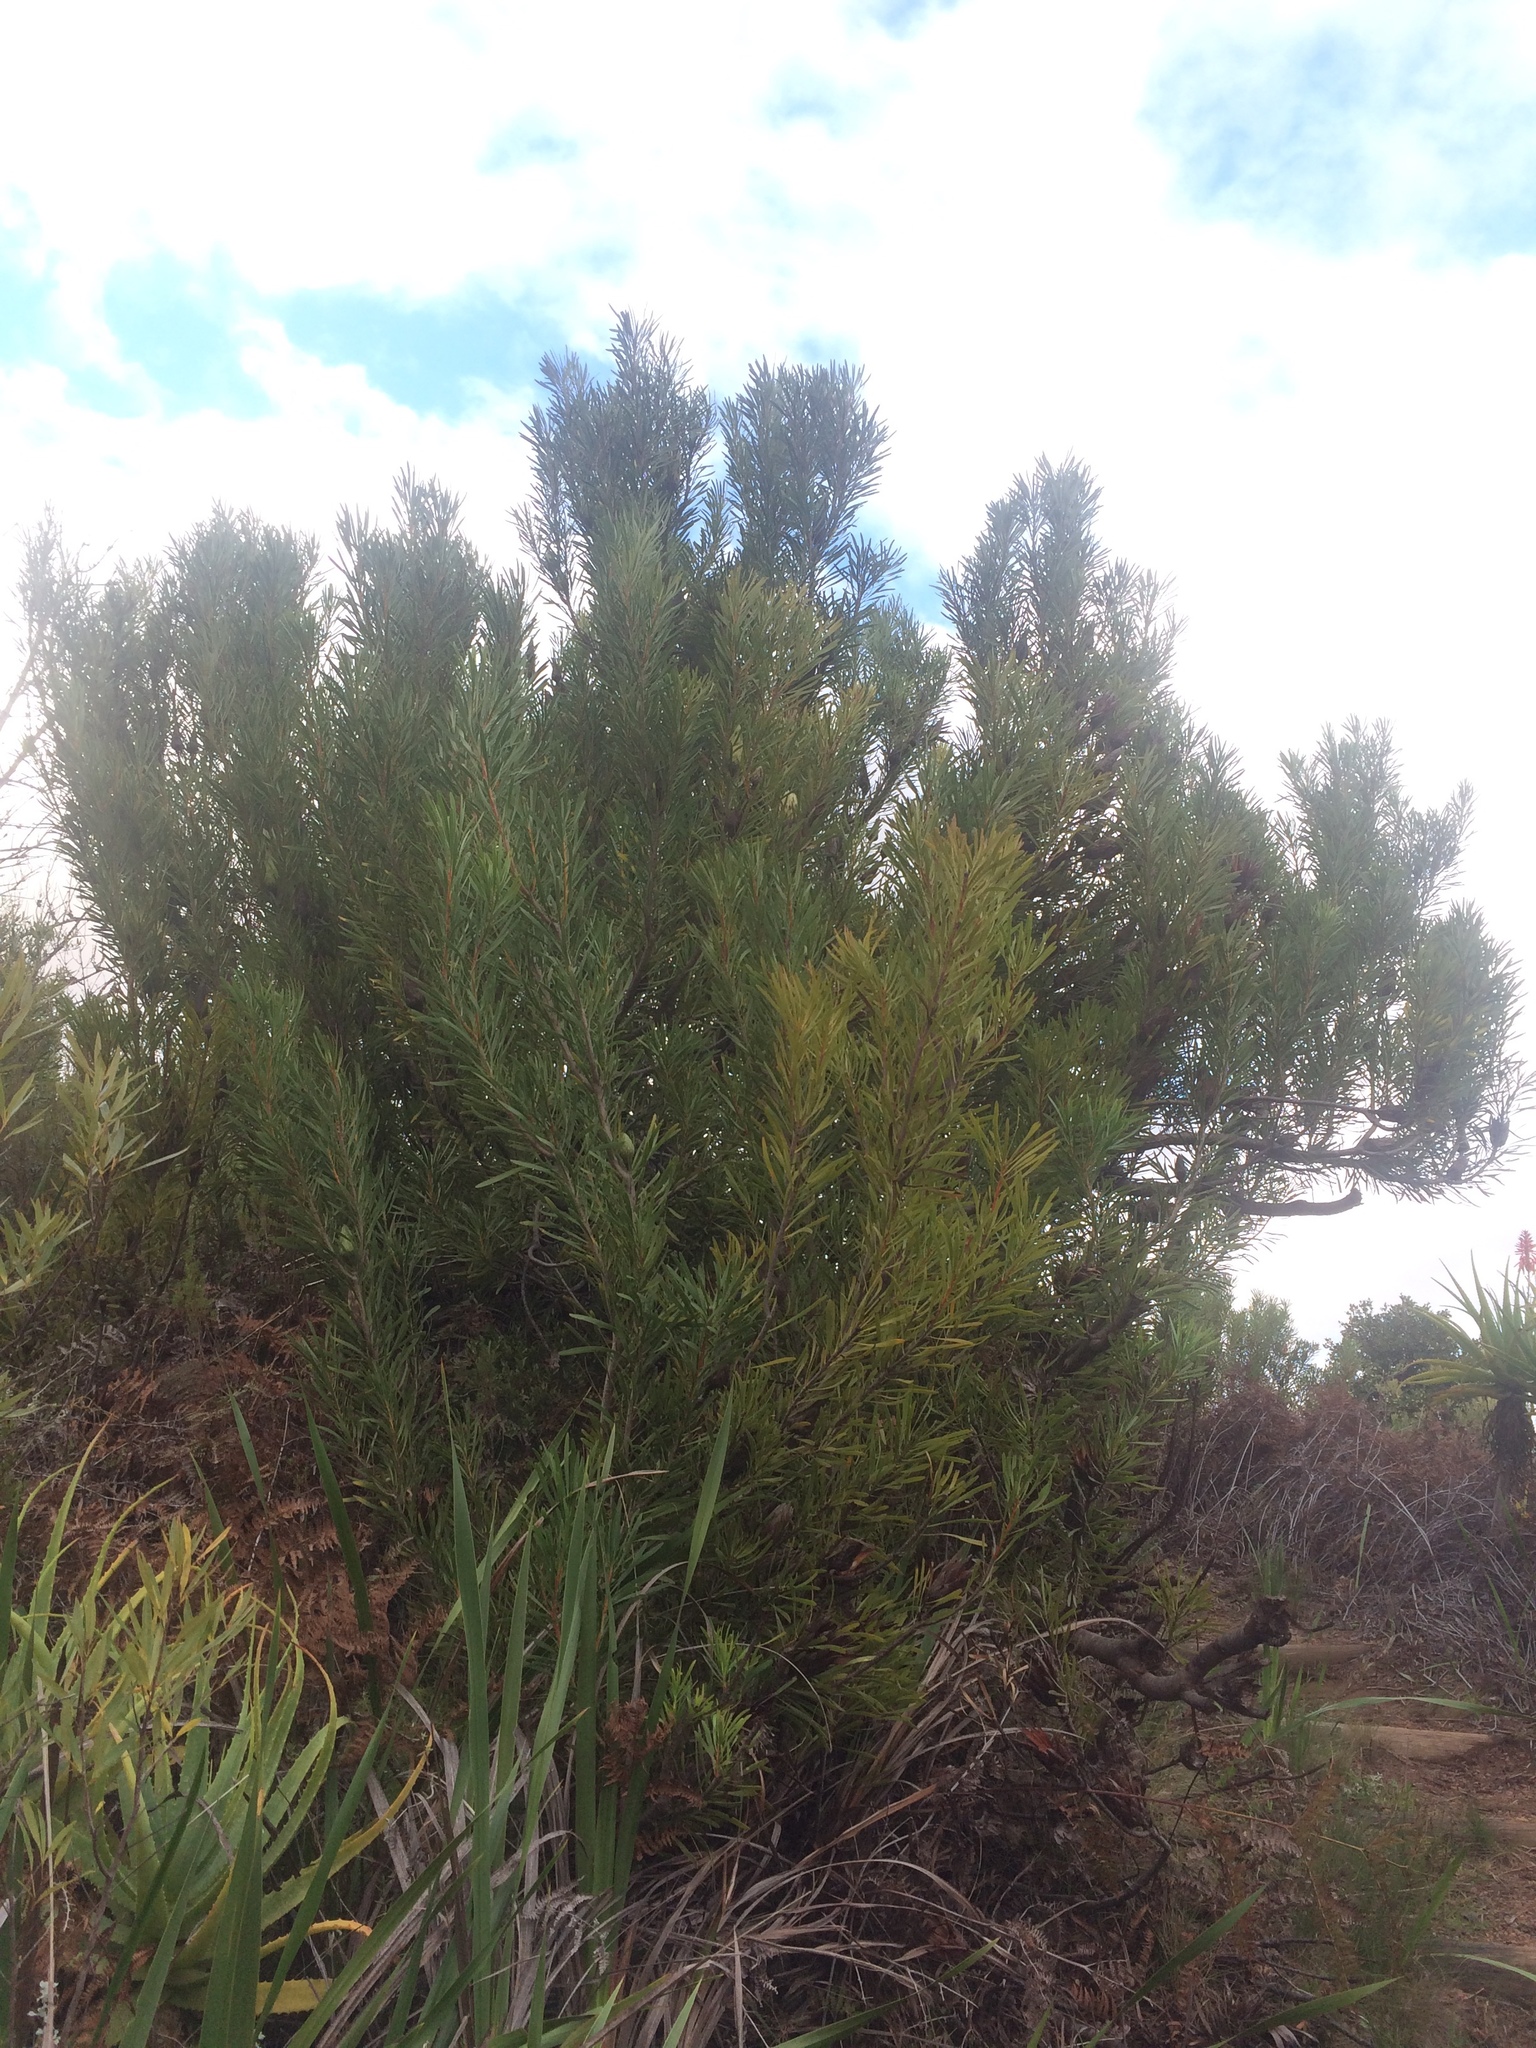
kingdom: Plantae
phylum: Tracheophyta
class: Magnoliopsida
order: Proteales
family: Proteaceae
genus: Protea
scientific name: Protea repens
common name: Sugarbush
